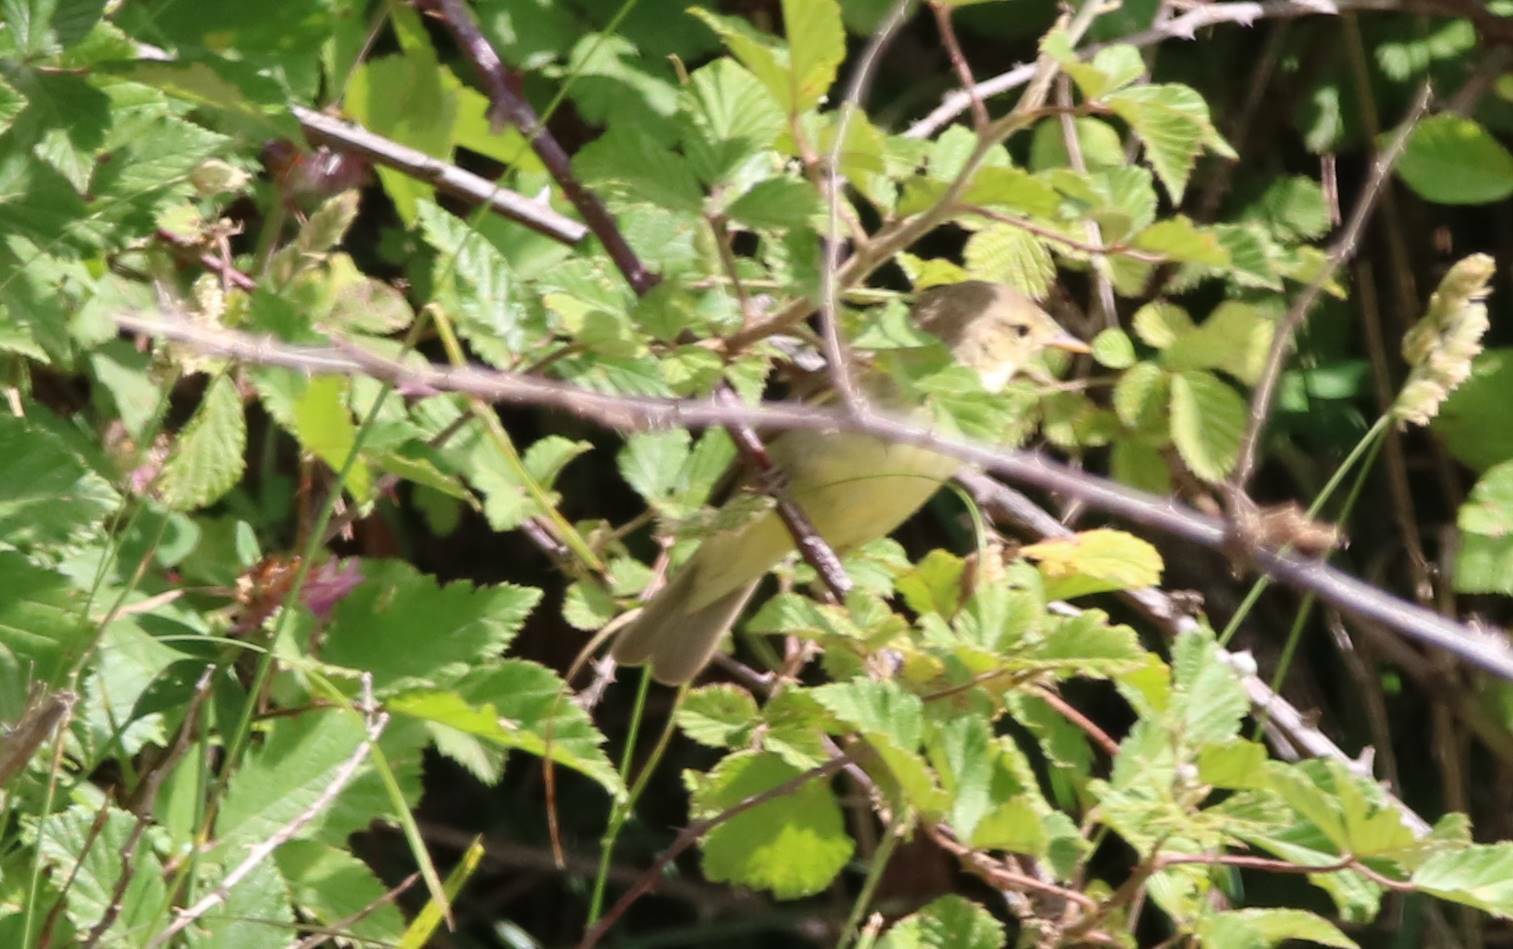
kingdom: Animalia
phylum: Chordata
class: Aves
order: Passeriformes
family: Acrocephalidae
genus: Hippolais
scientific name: Hippolais polyglotta
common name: Melodious warbler
